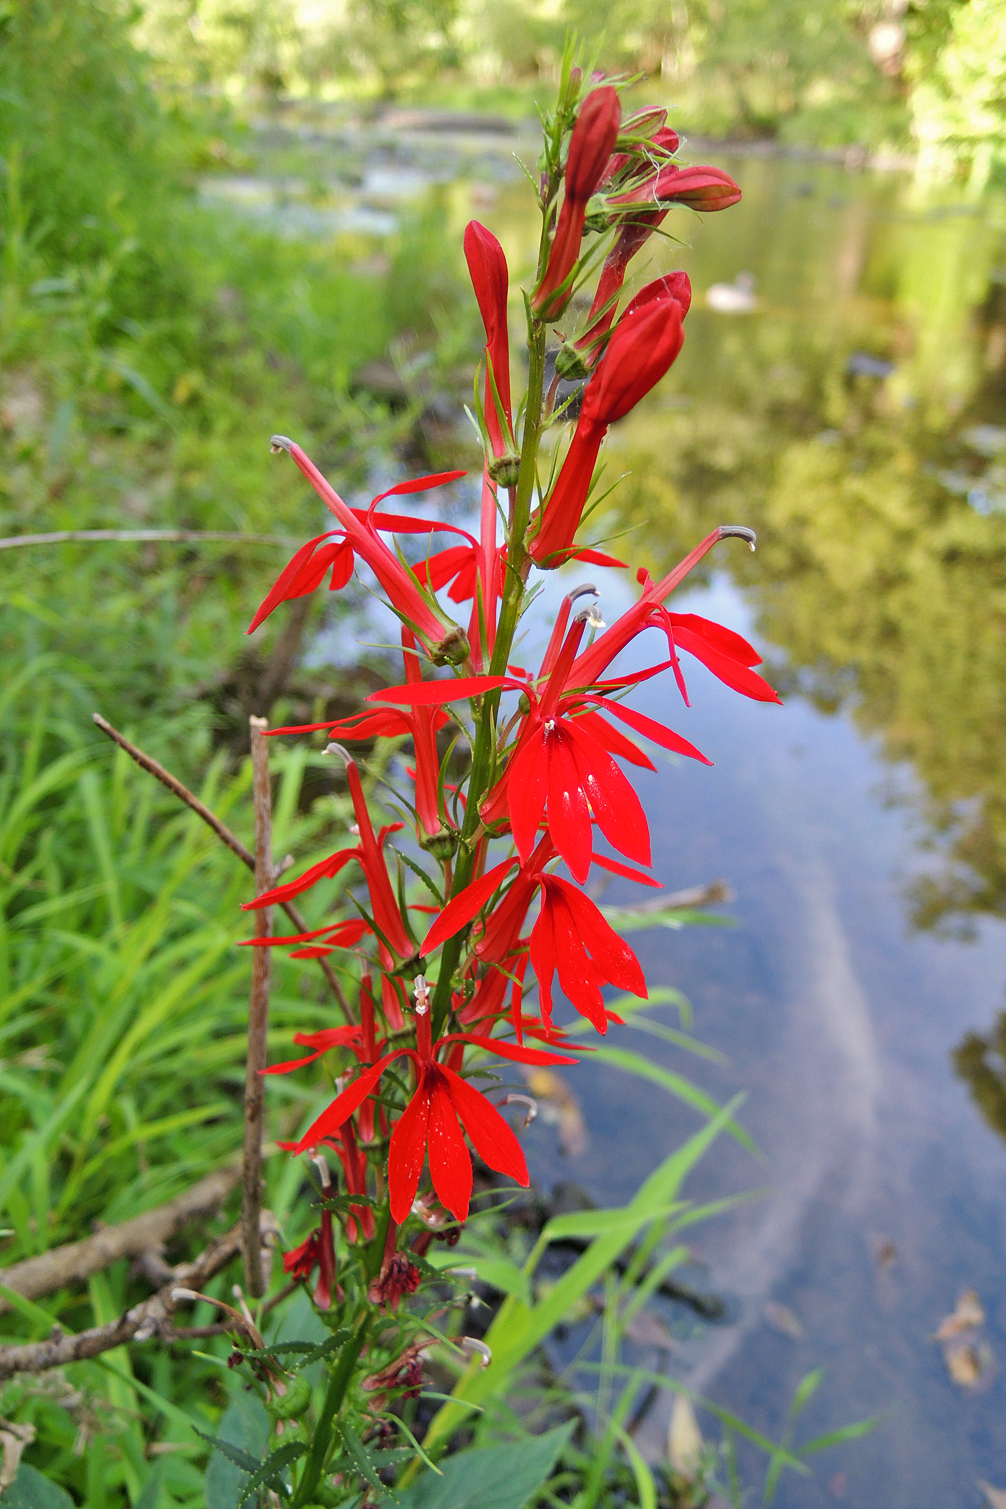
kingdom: Plantae
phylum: Tracheophyta
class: Magnoliopsida
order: Asterales
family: Campanulaceae
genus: Lobelia
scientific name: Lobelia cardinalis
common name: Cardinal flower
